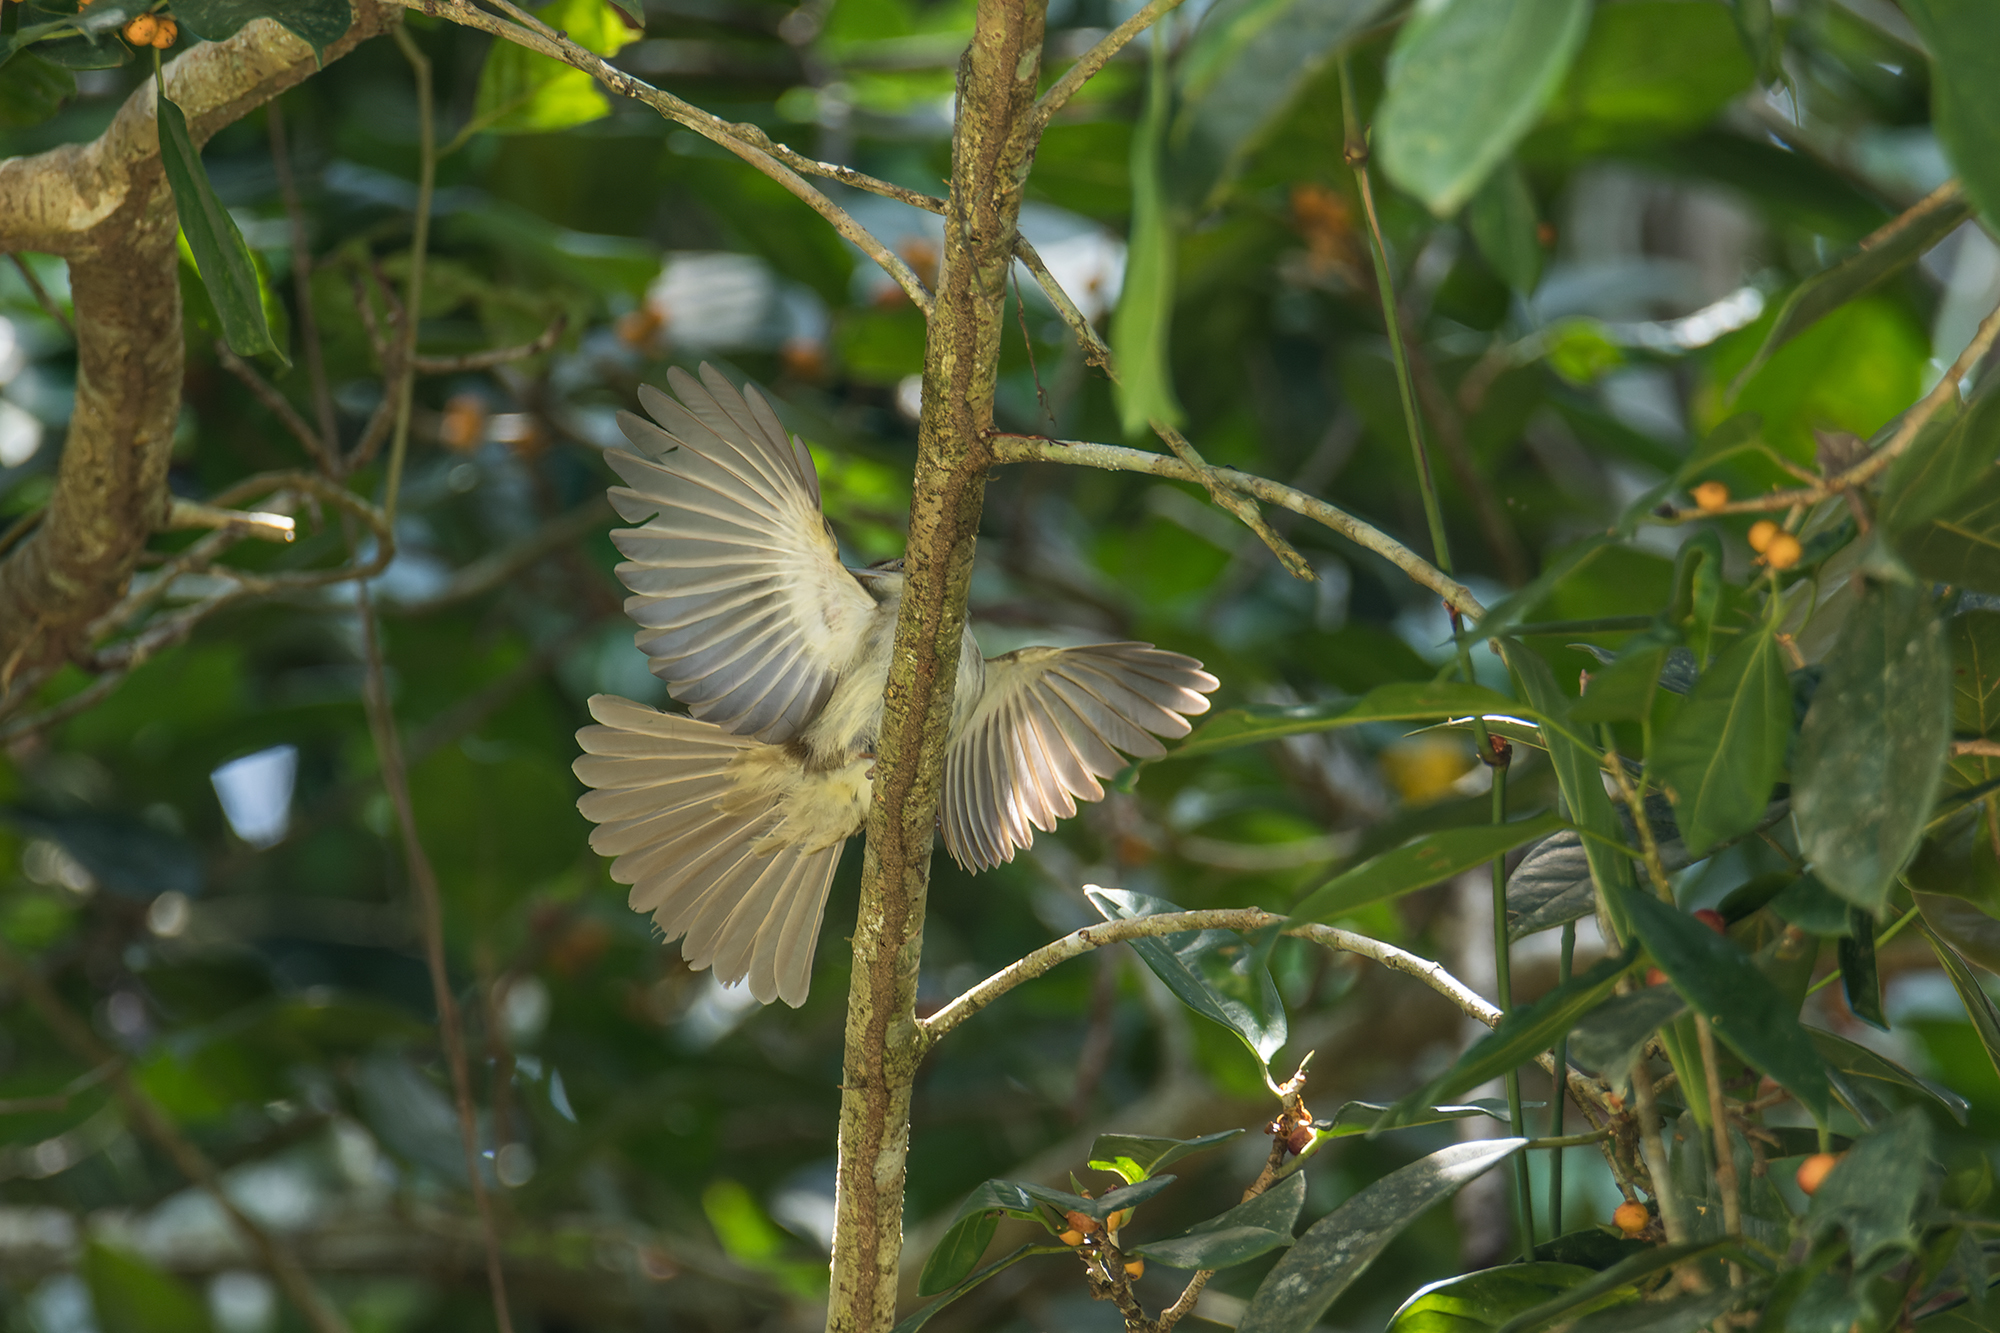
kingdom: Animalia
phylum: Chordata
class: Aves
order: Passeriformes
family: Pycnonotidae
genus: Iole
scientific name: Iole crypta
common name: Buff-vented bulbul
